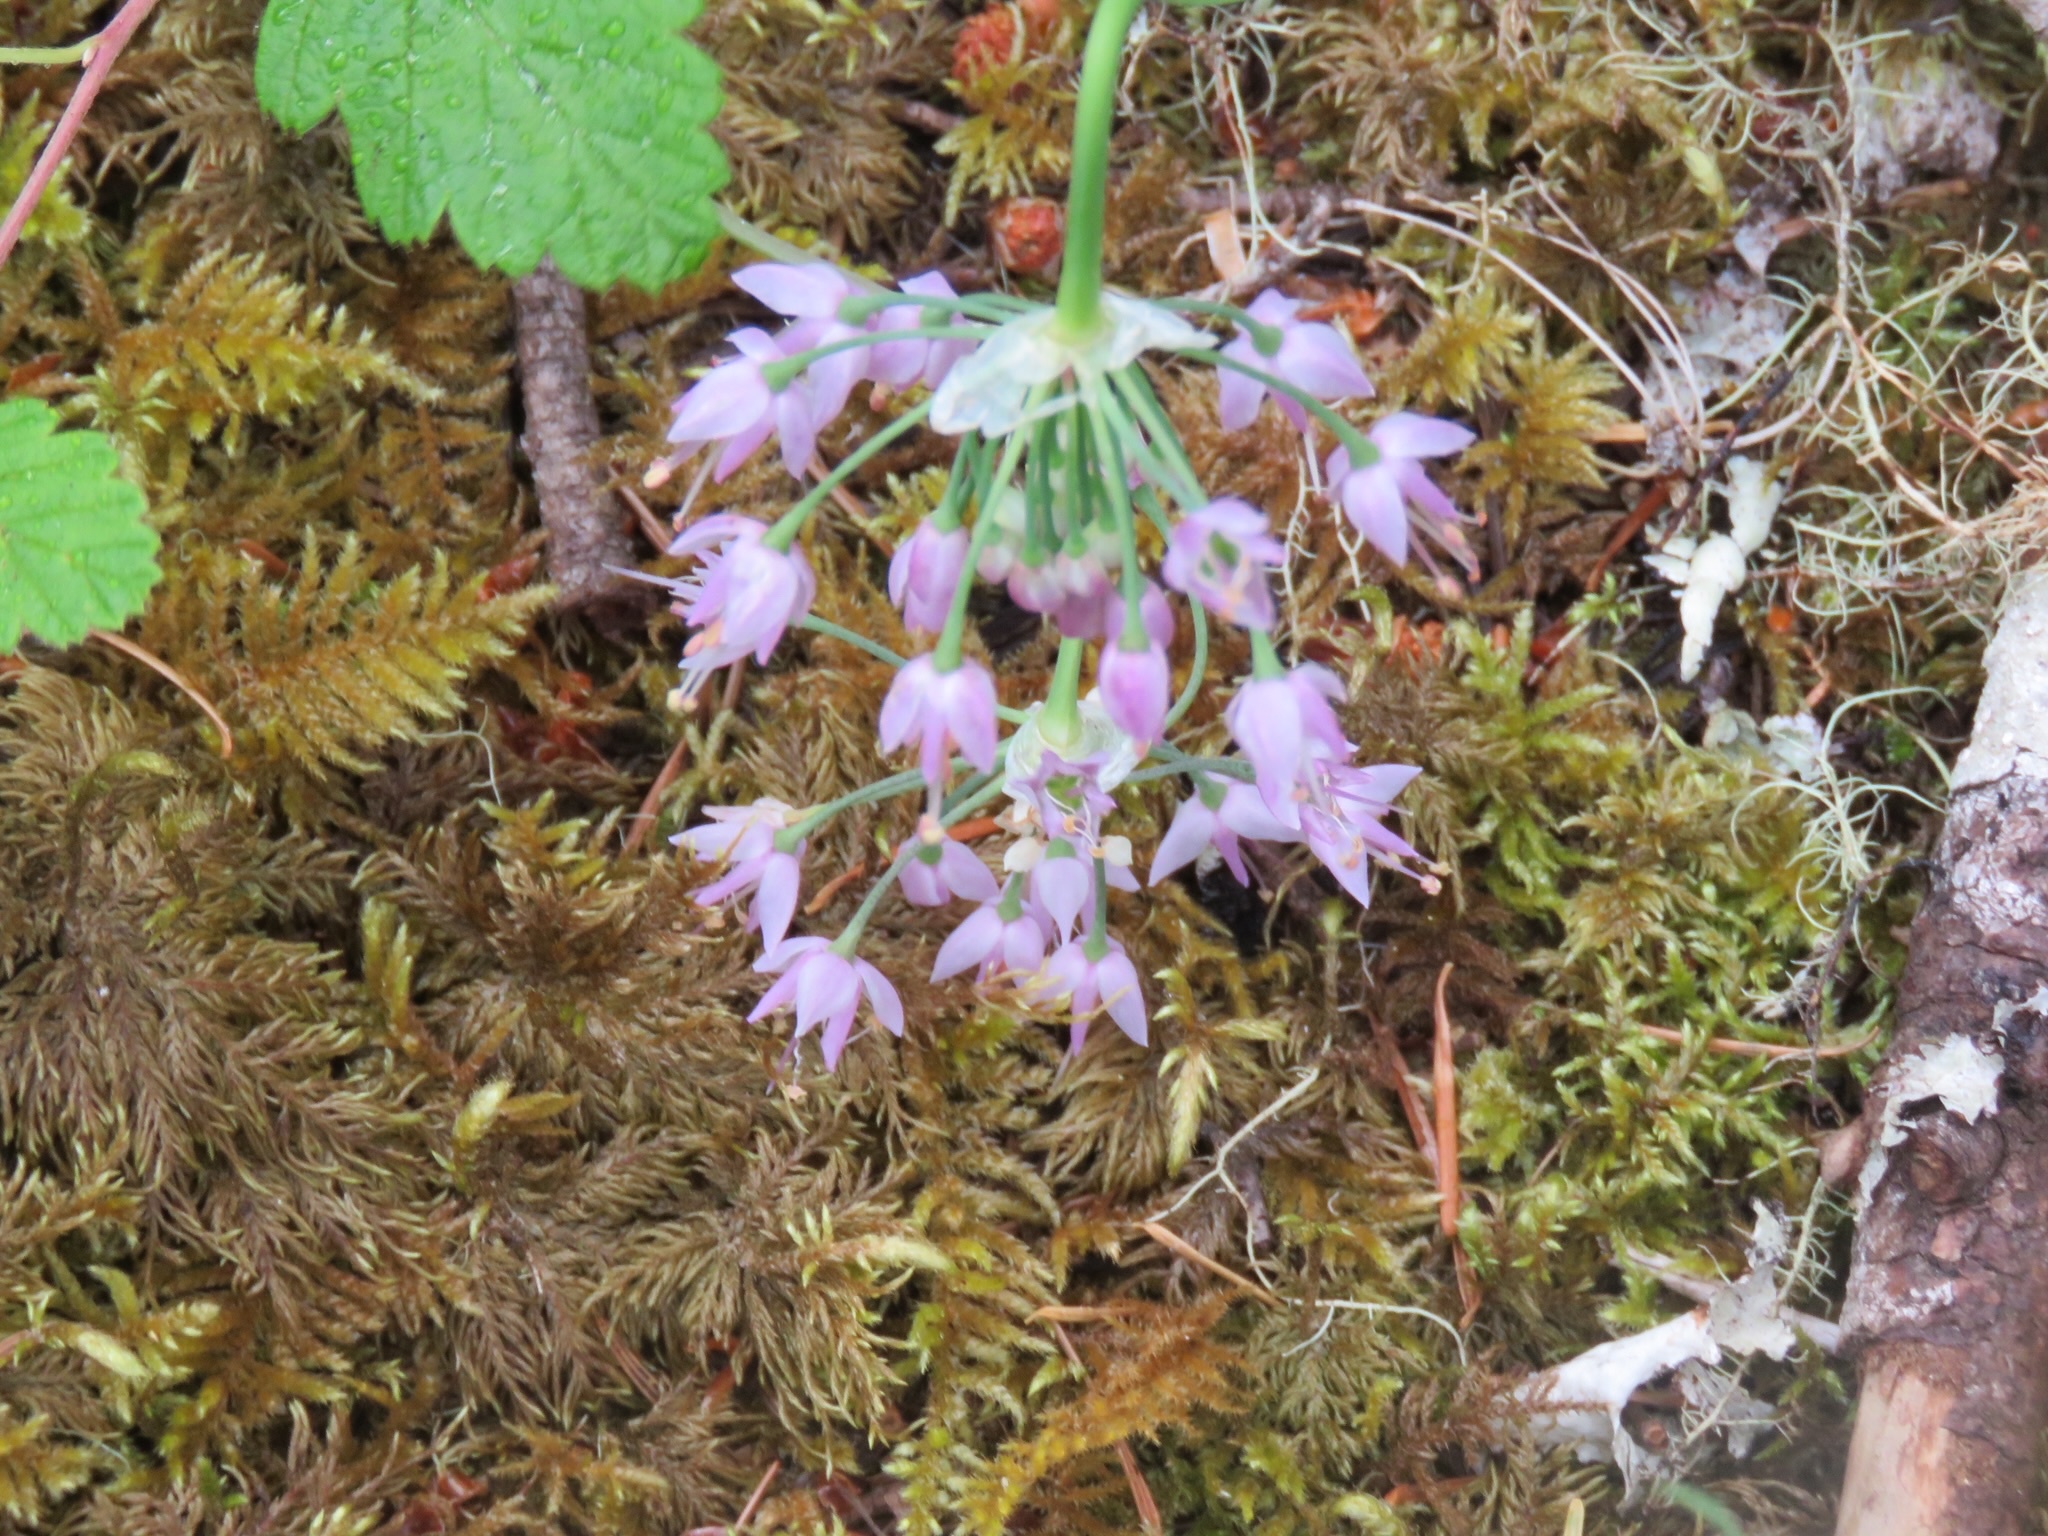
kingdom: Plantae
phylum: Tracheophyta
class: Liliopsida
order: Asparagales
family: Amaryllidaceae
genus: Allium
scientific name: Allium cernuum
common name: Nodding onion
